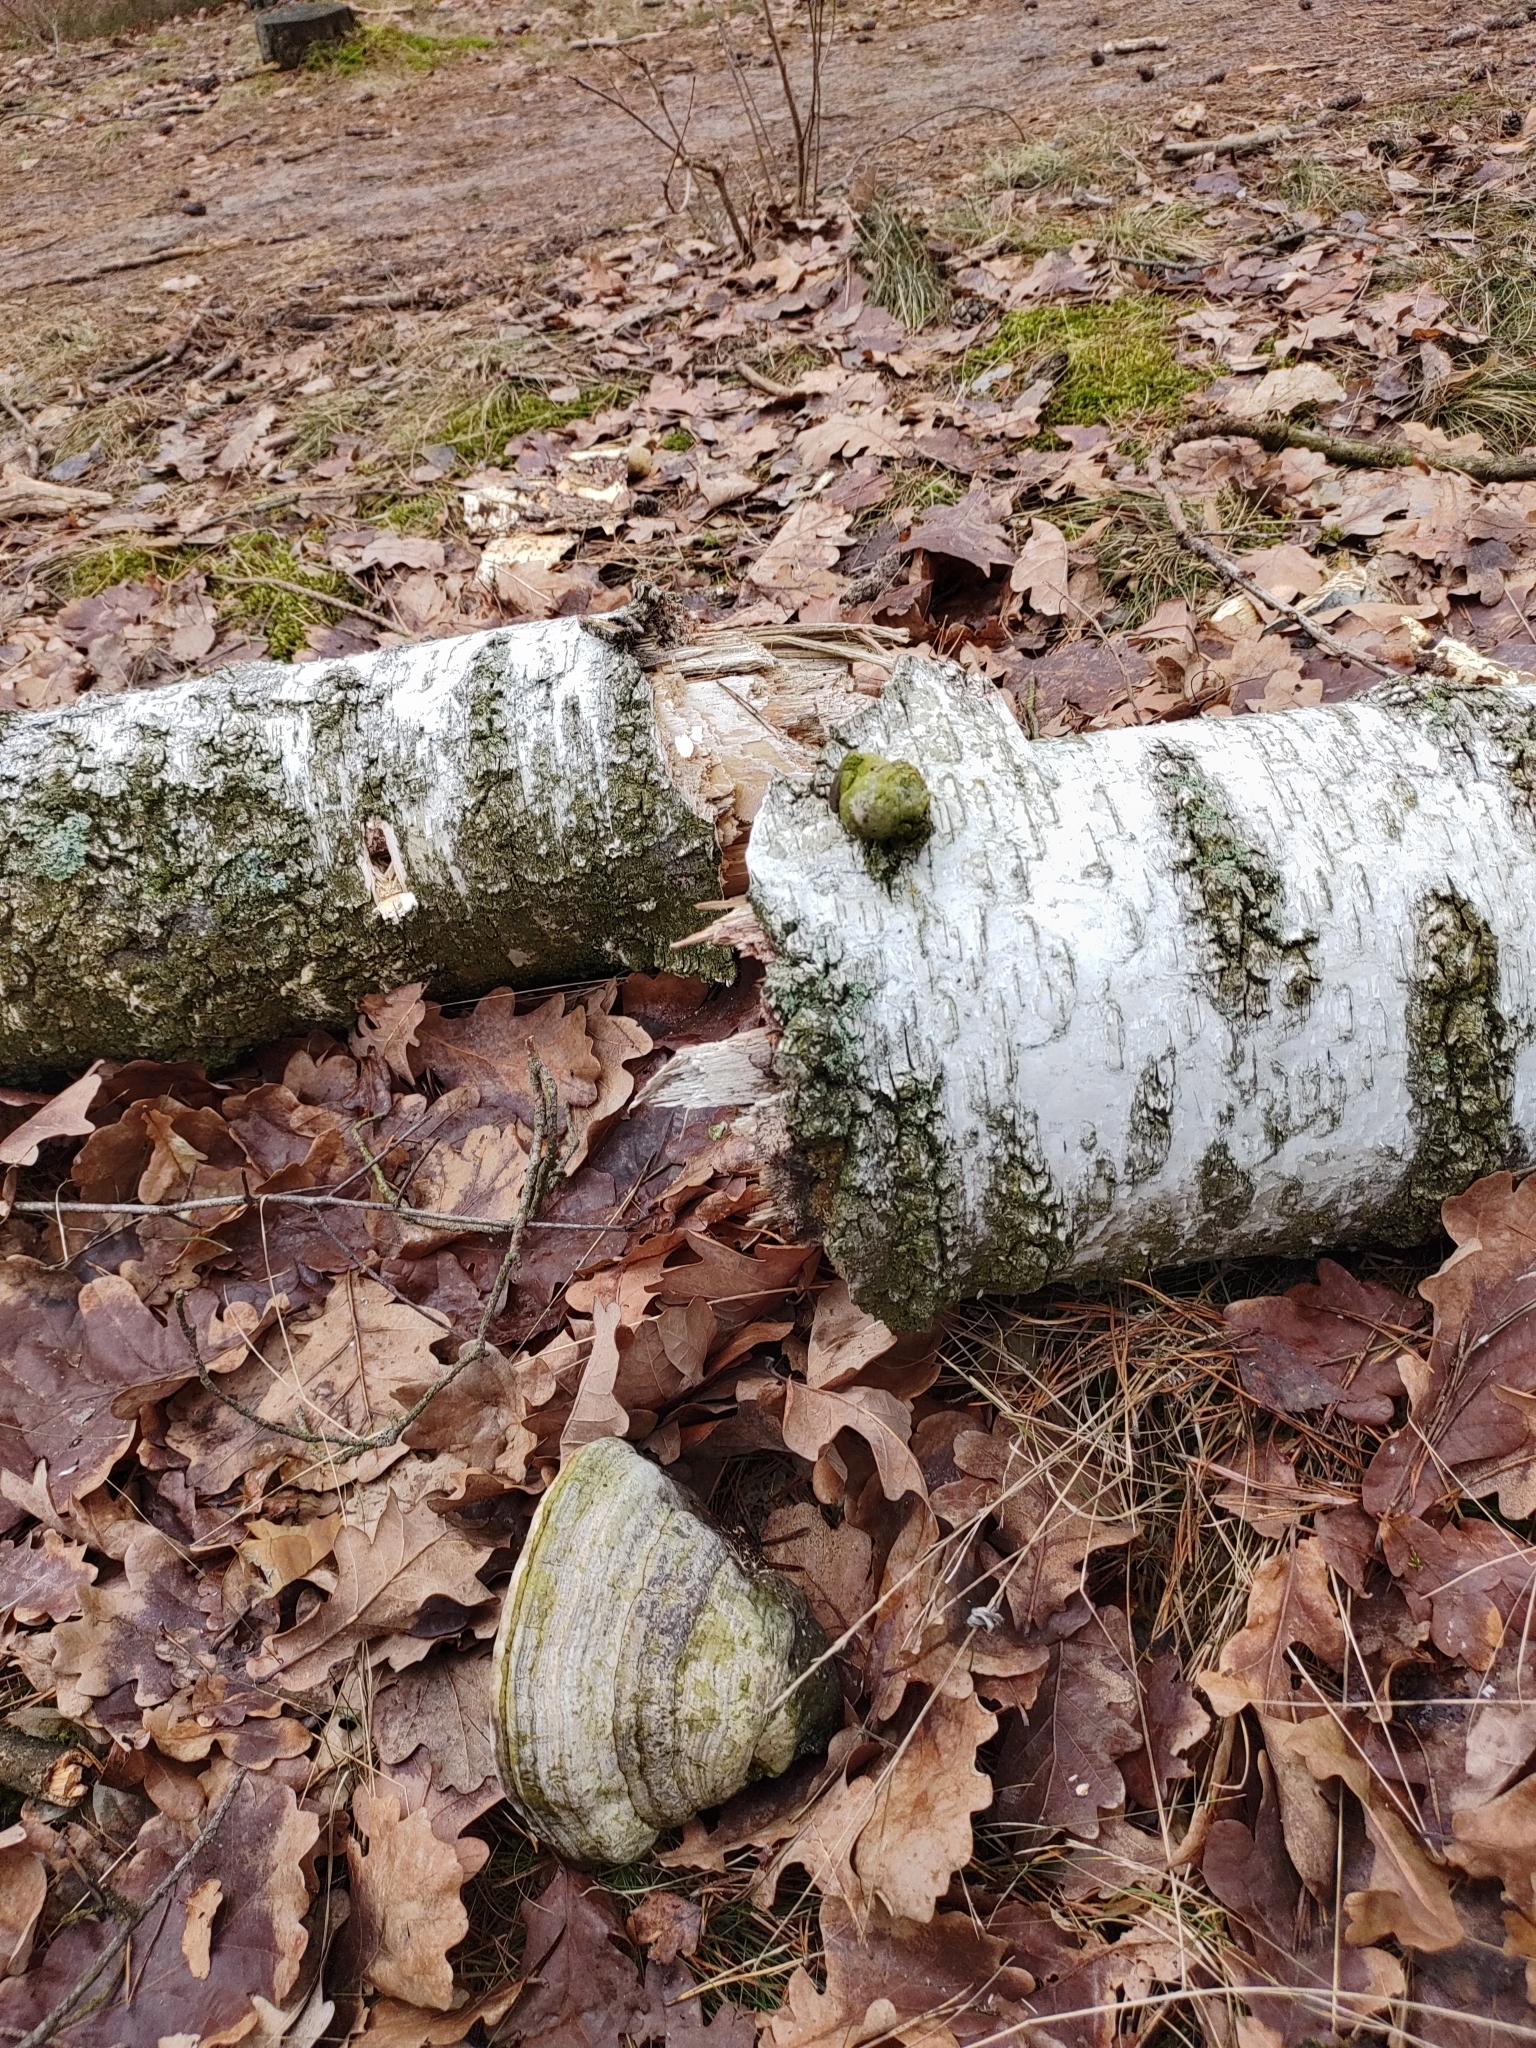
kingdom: Fungi
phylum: Basidiomycota
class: Agaricomycetes
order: Polyporales
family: Polyporaceae
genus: Fomes
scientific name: Fomes fomentarius
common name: Hoof fungus
